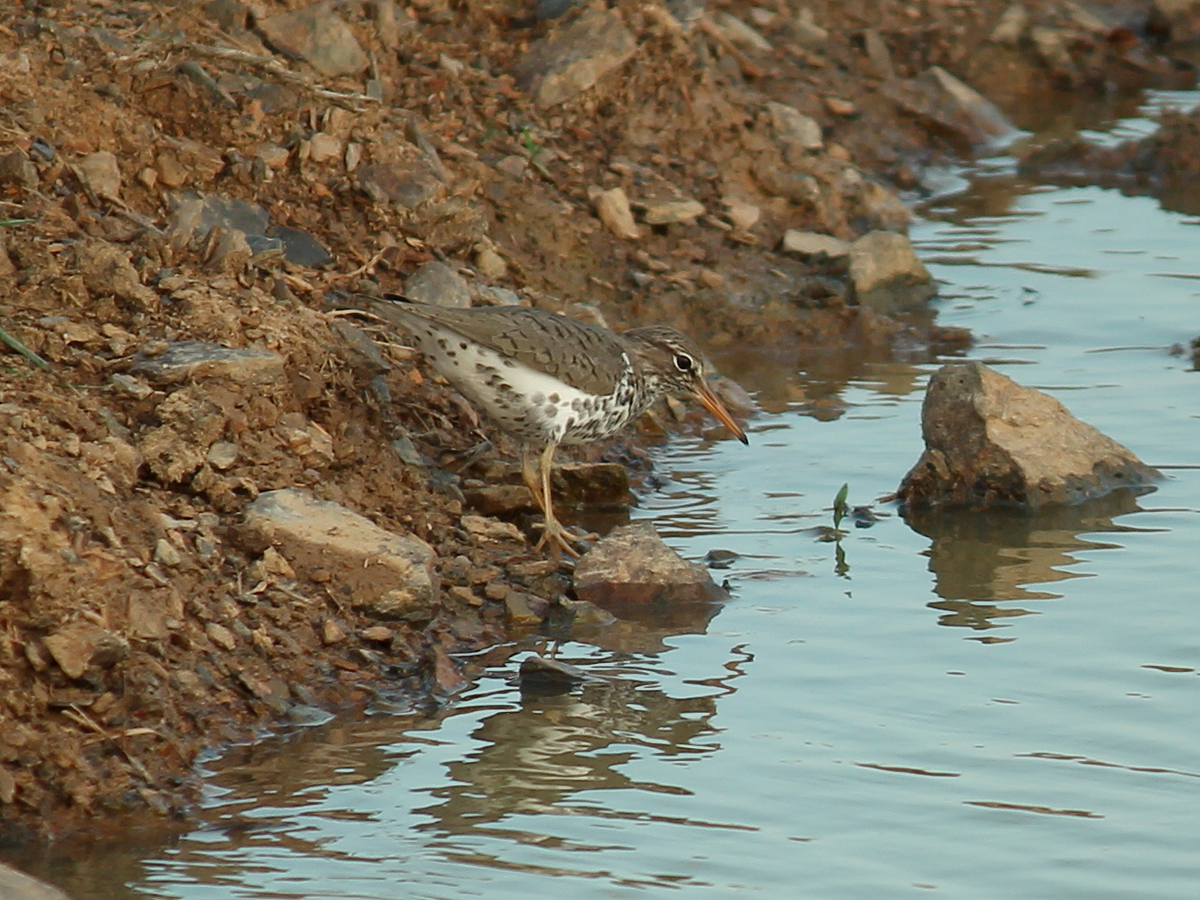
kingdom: Animalia
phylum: Chordata
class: Aves
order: Charadriiformes
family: Scolopacidae
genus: Actitis
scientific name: Actitis macularius
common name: Spotted sandpiper
